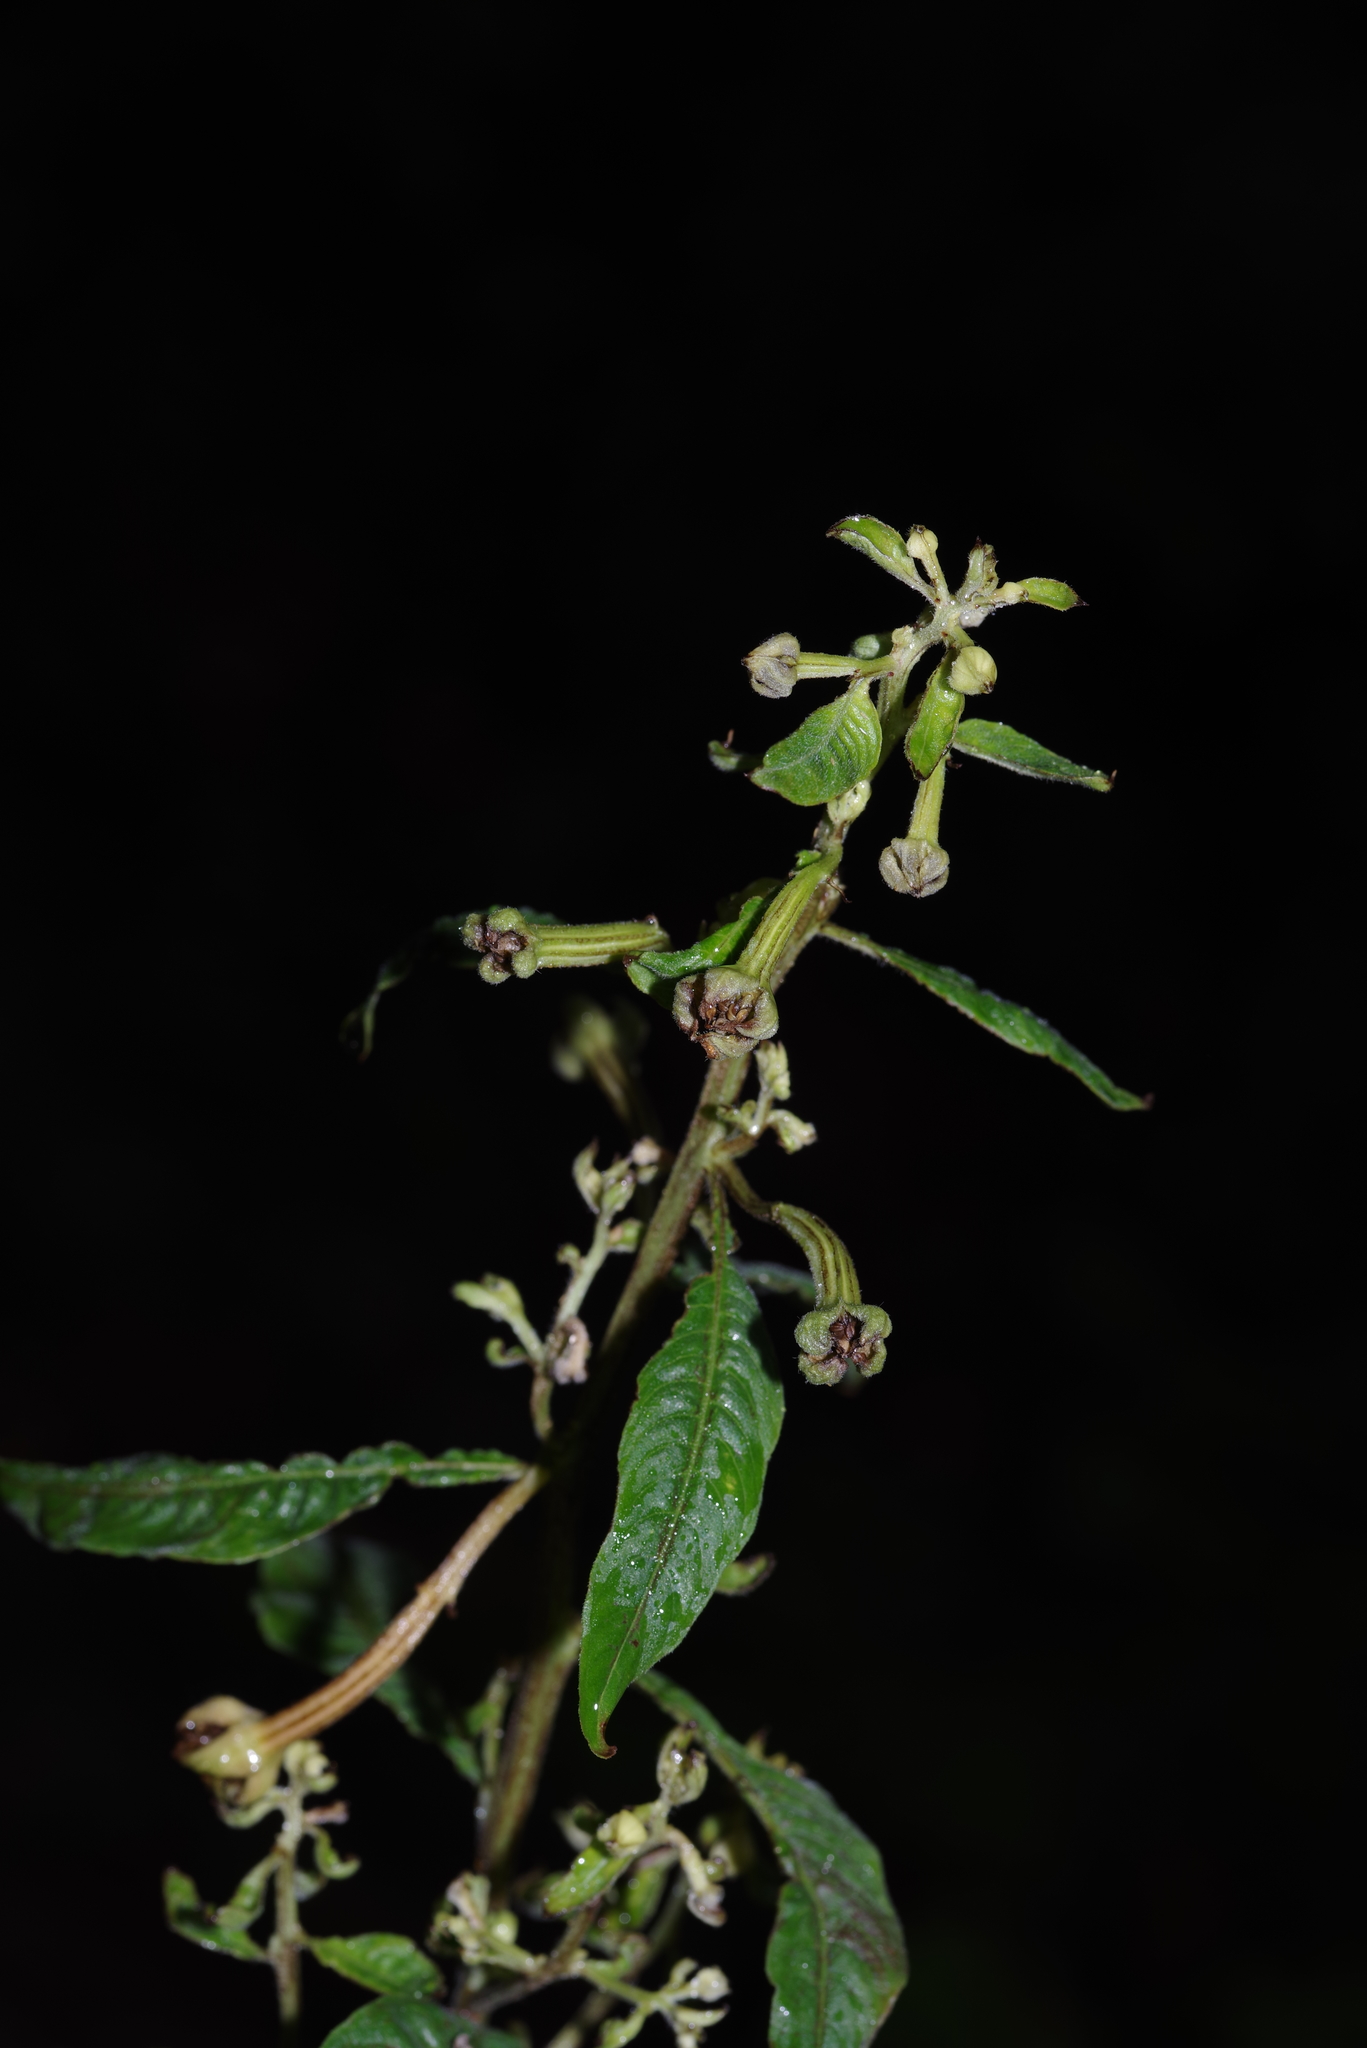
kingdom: Plantae
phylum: Tracheophyta
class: Magnoliopsida
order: Myrtales
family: Onagraceae
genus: Ludwigia
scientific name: Ludwigia octovalvis
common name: Water-primrose
